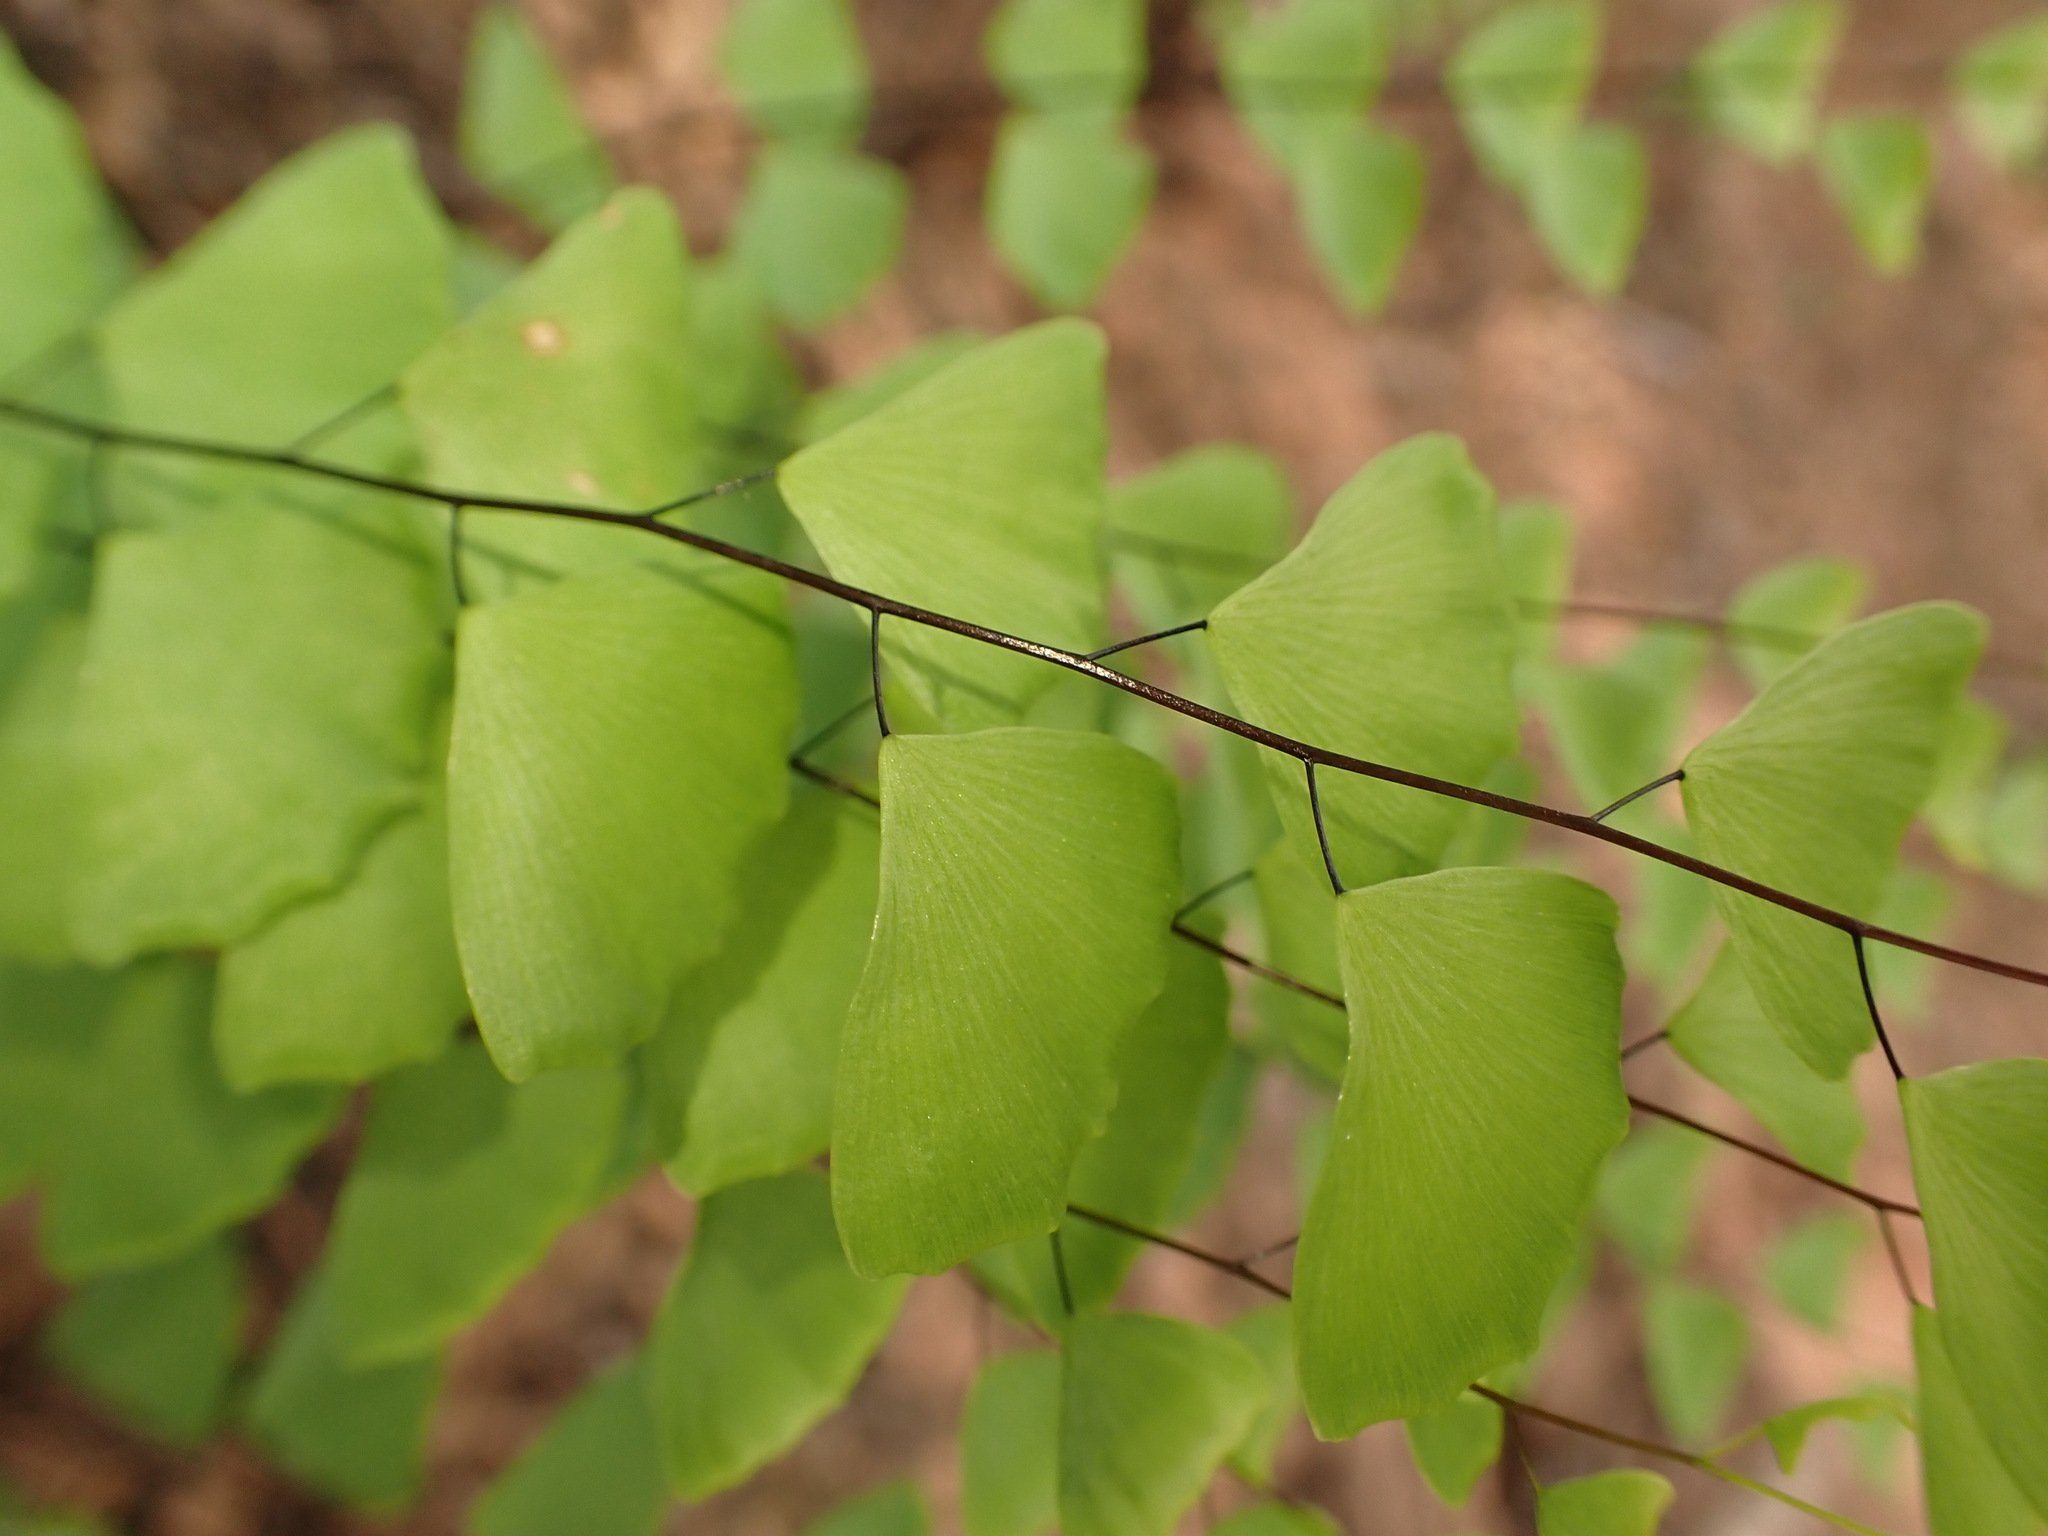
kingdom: Plantae
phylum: Tracheophyta
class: Polypodiopsida
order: Polypodiales
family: Pteridaceae
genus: Adiantum
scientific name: Adiantum philippense
